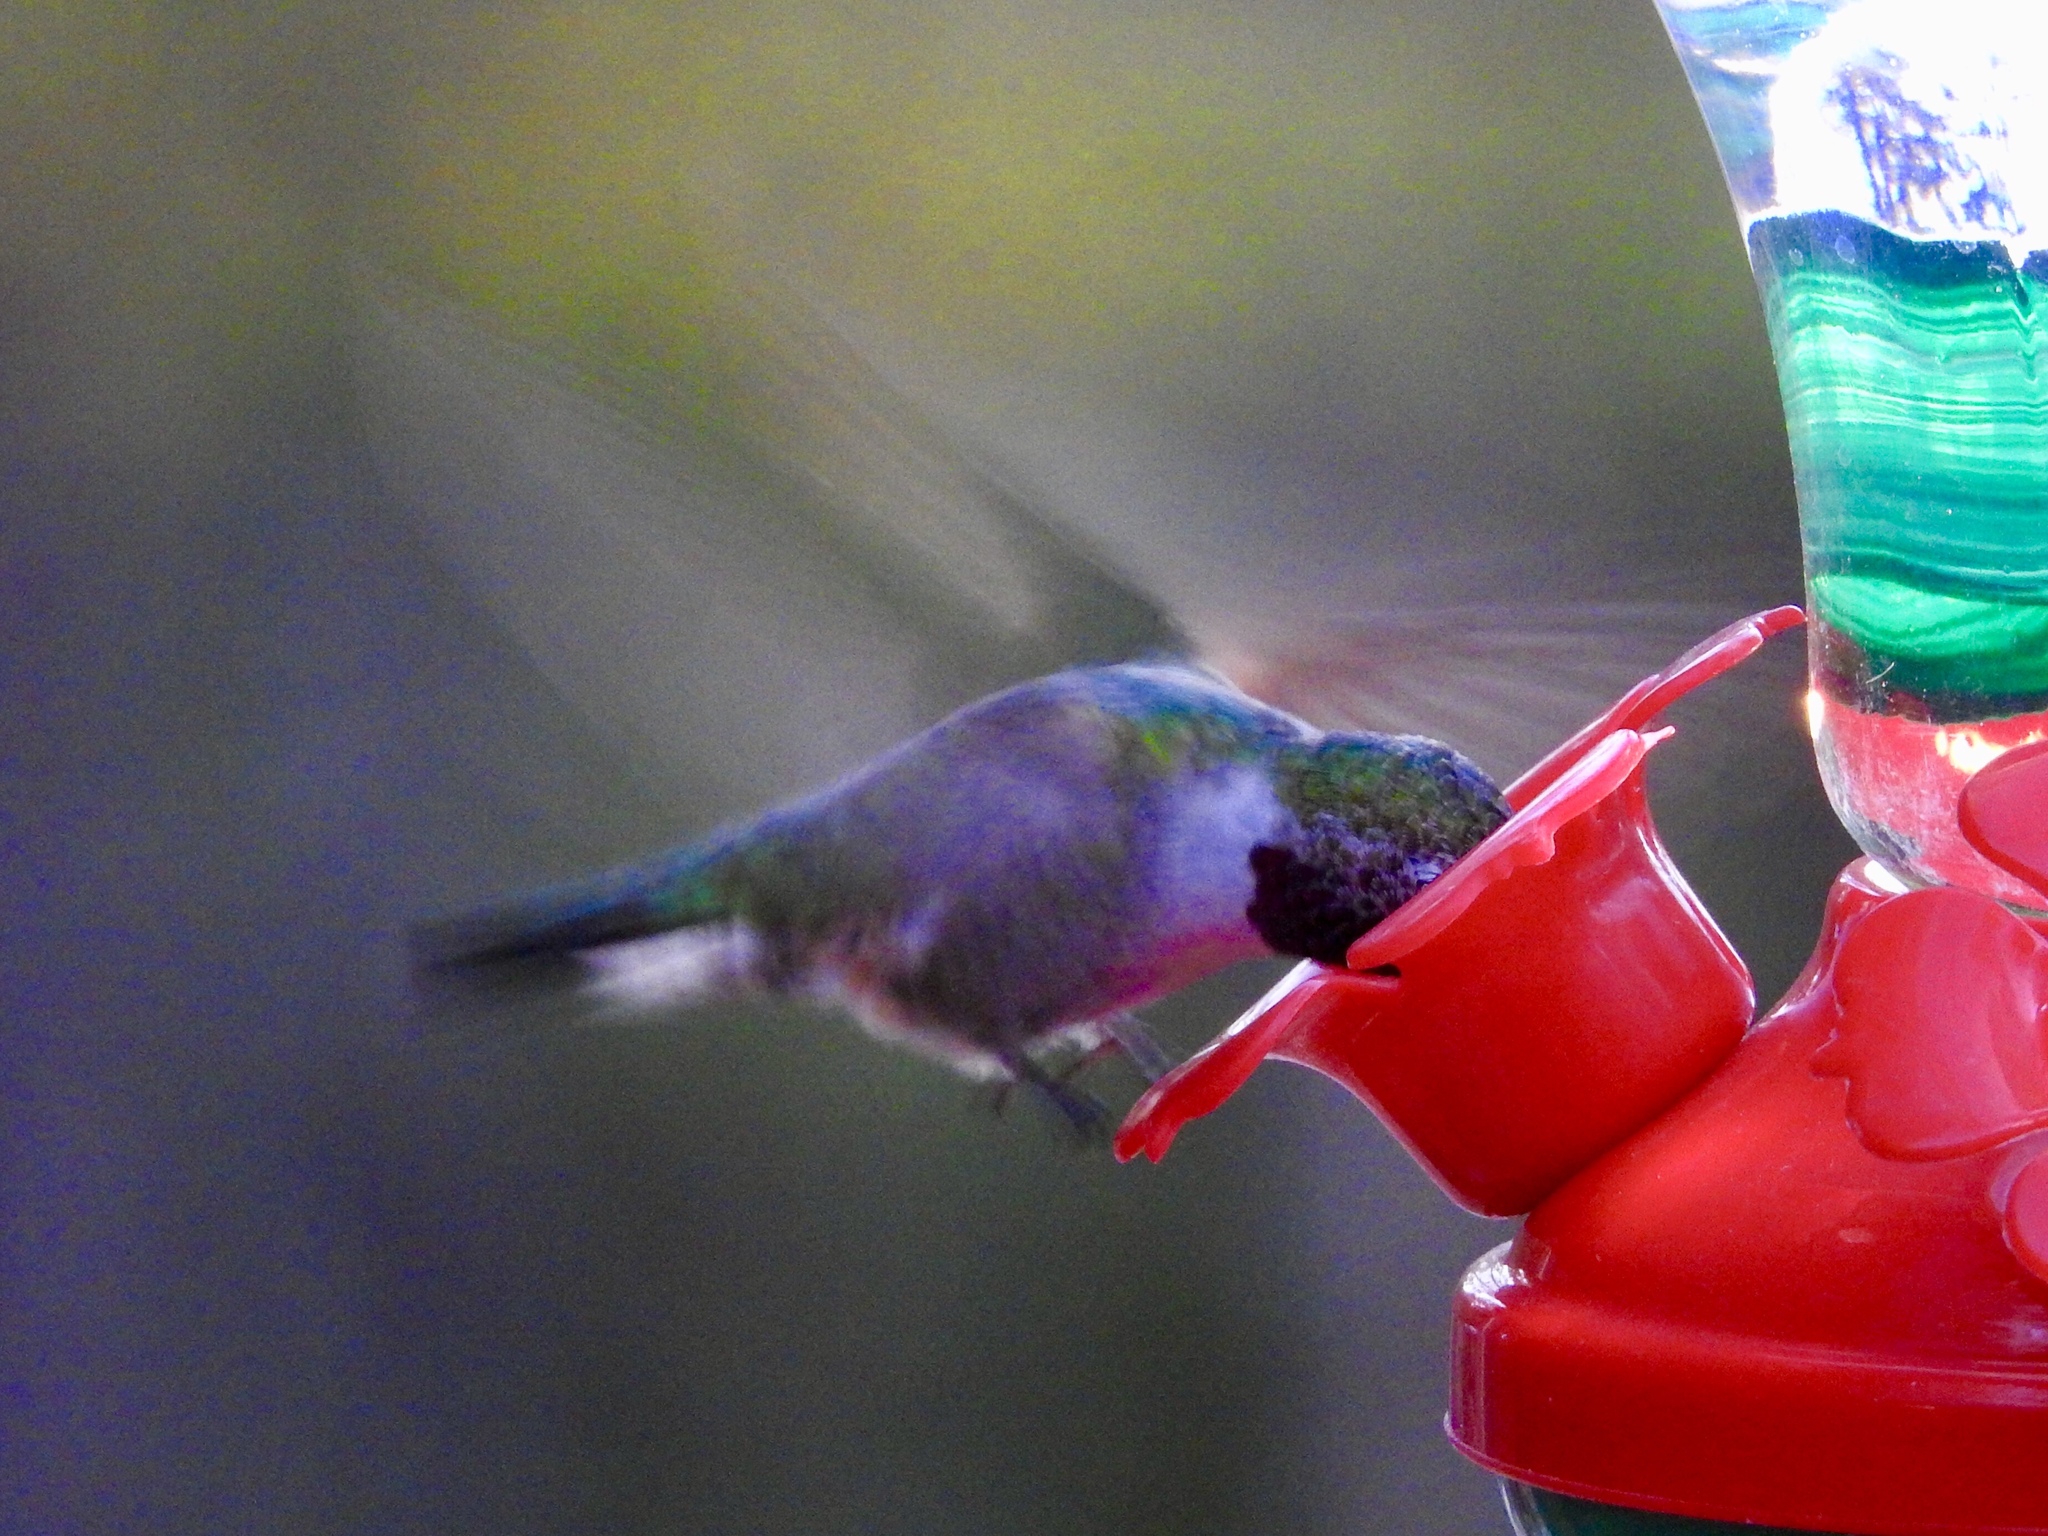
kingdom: Animalia
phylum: Chordata
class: Aves
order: Apodiformes
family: Trochilidae
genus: Selasphorus
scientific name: Selasphorus platycercus
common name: Broad-tailed hummingbird
